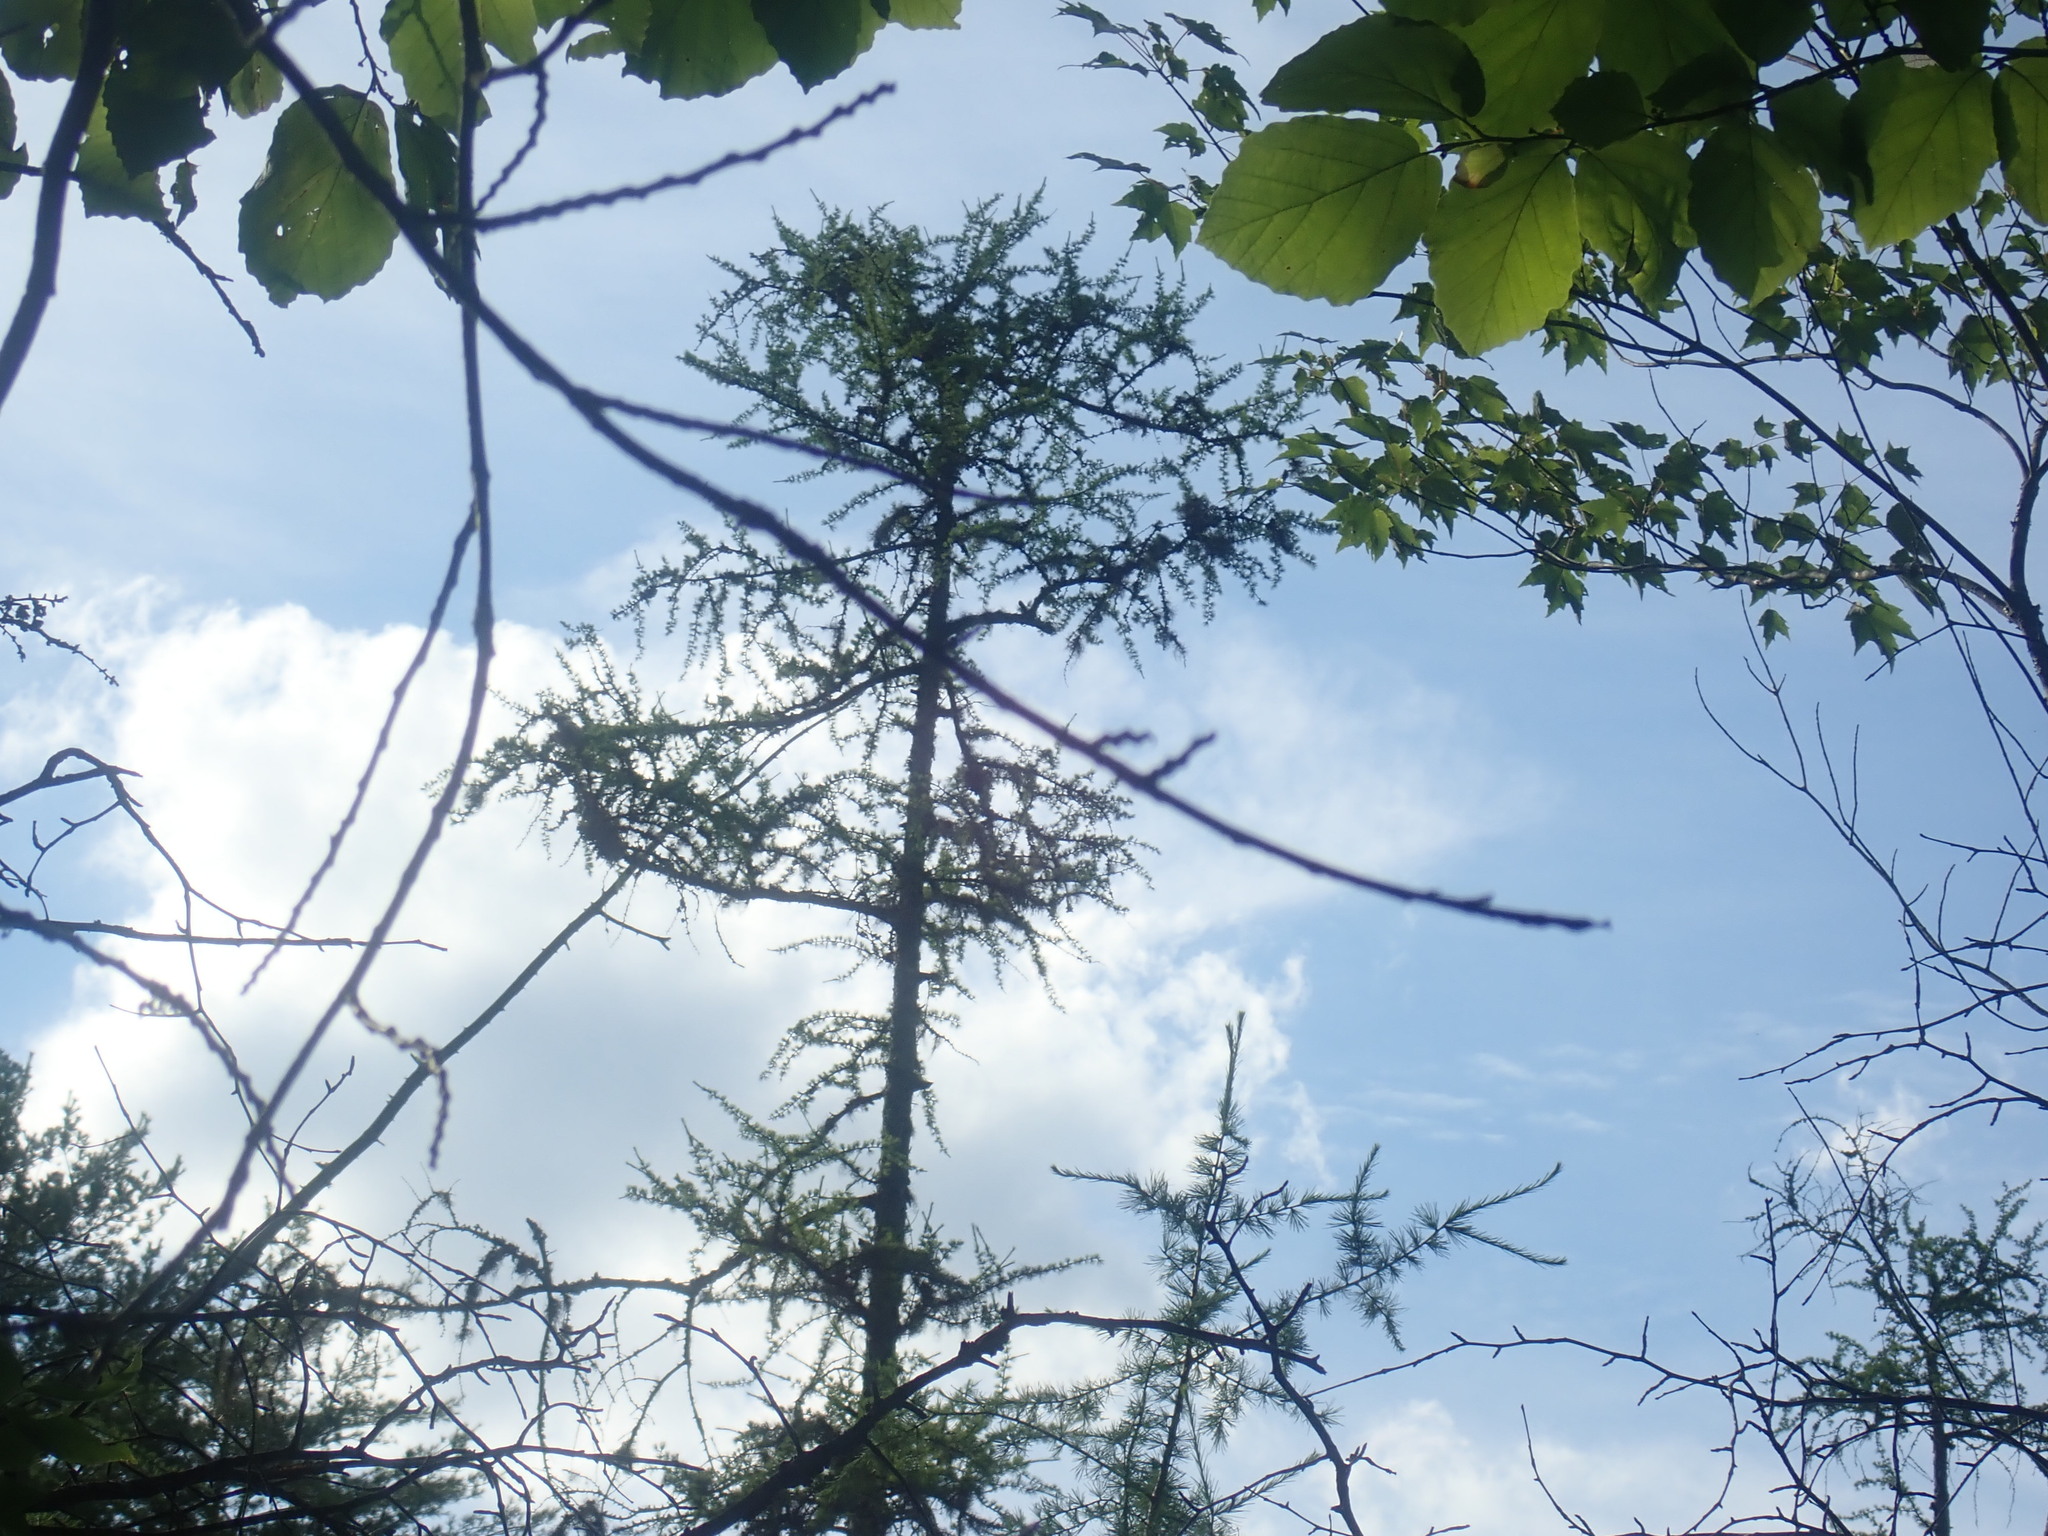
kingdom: Plantae
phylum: Tracheophyta
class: Pinopsida
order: Pinales
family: Pinaceae
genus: Larix
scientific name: Larix laricina
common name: American larch
